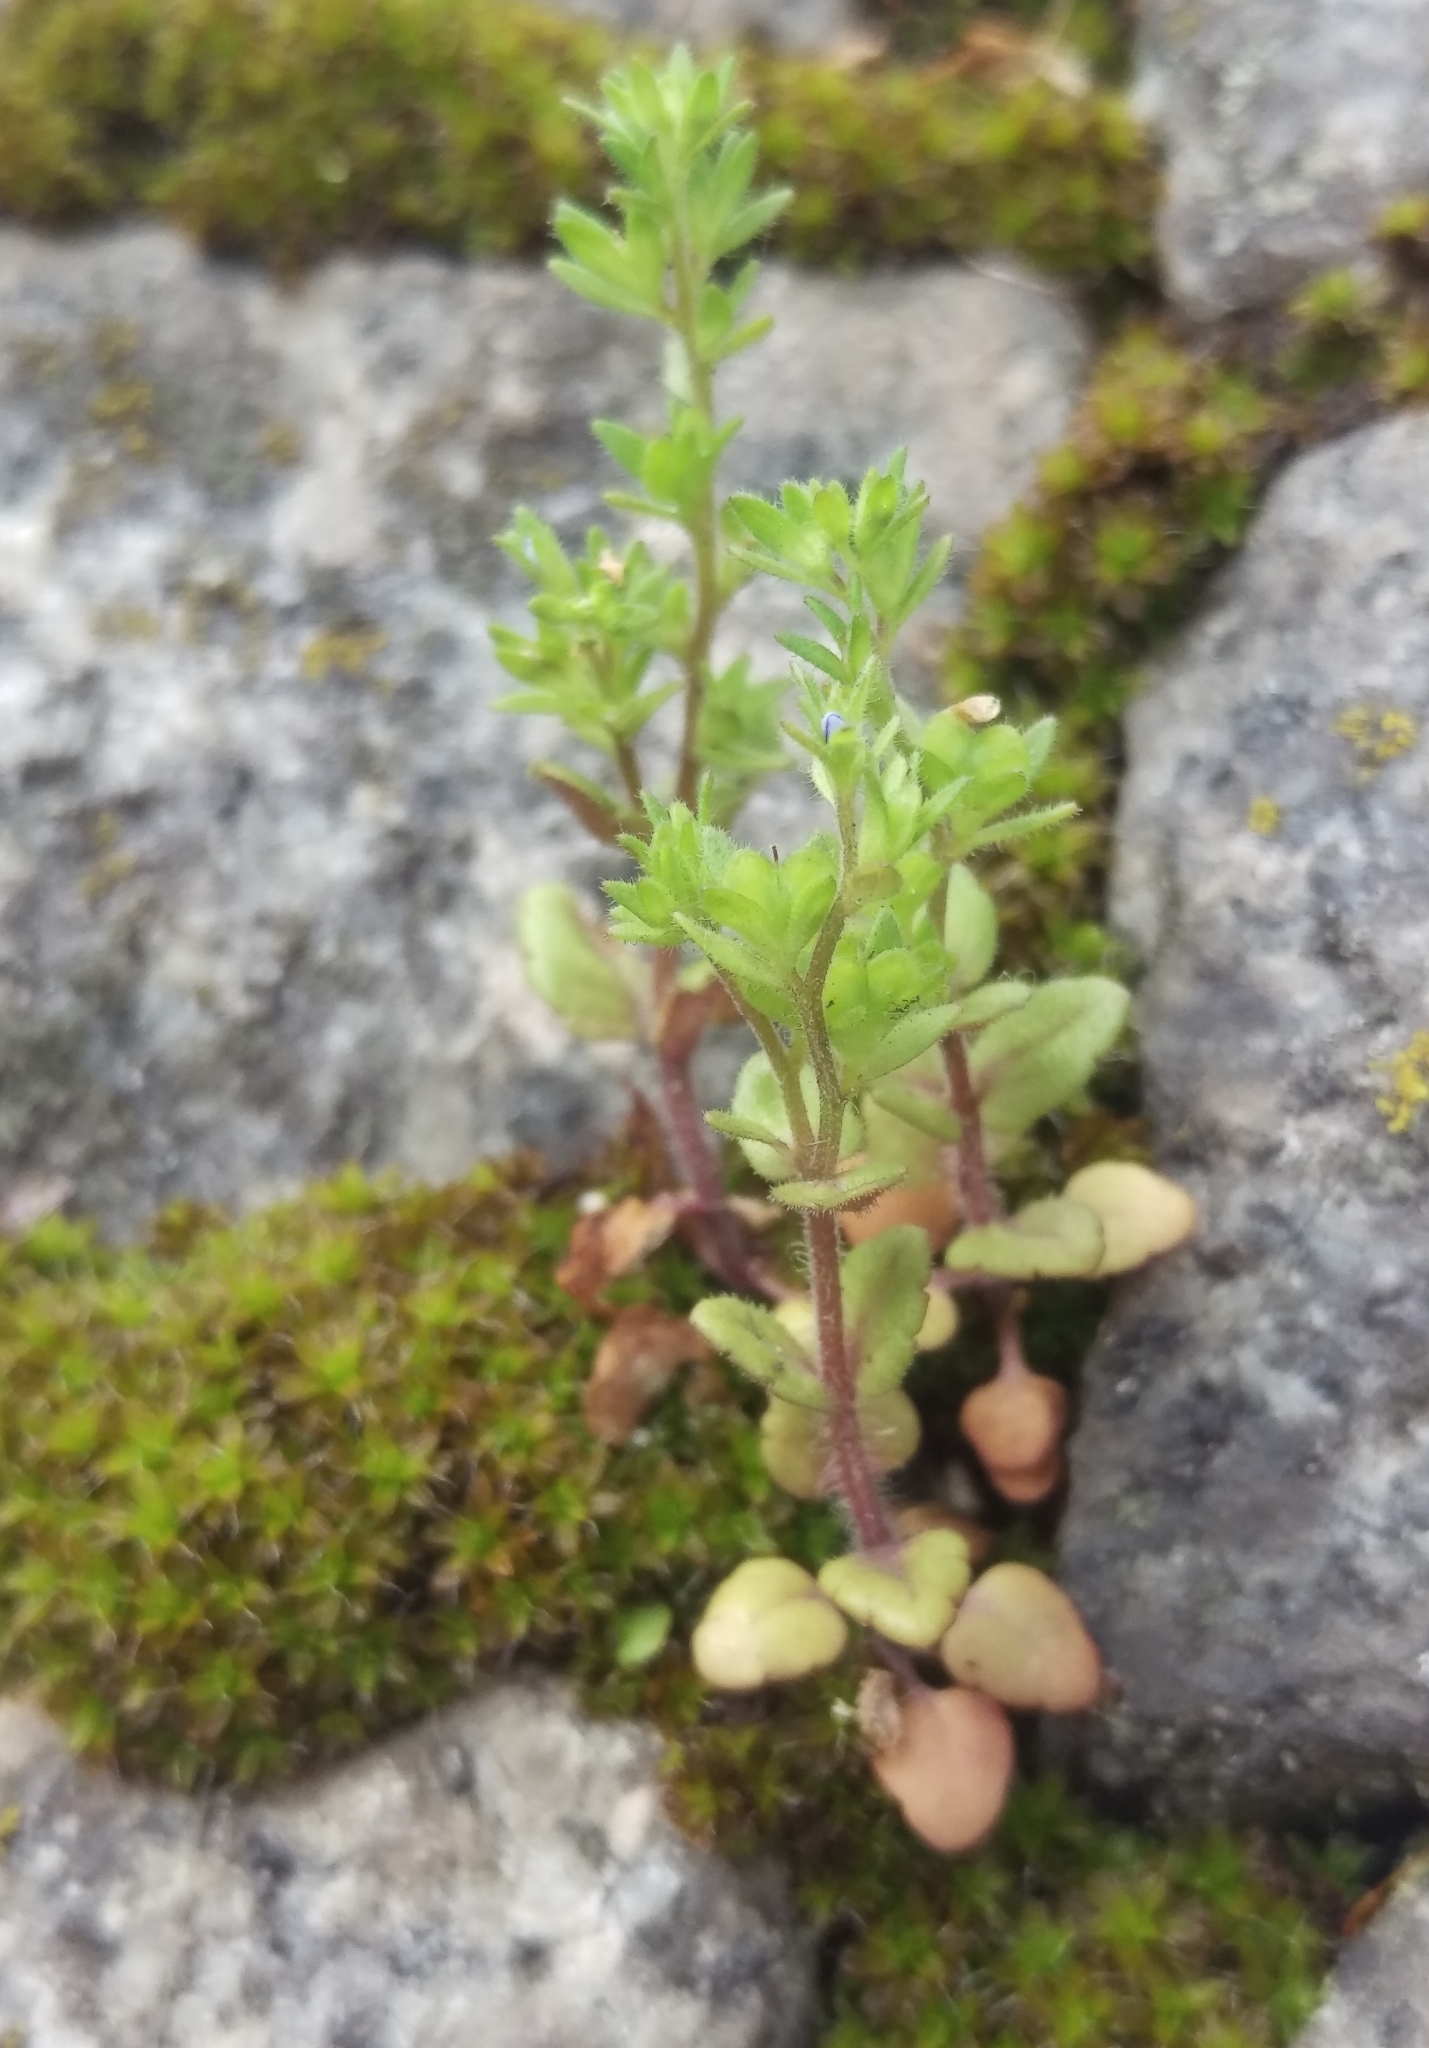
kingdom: Plantae
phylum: Tracheophyta
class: Magnoliopsida
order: Lamiales
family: Plantaginaceae
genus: Veronica
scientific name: Veronica arvensis
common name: Corn speedwell
